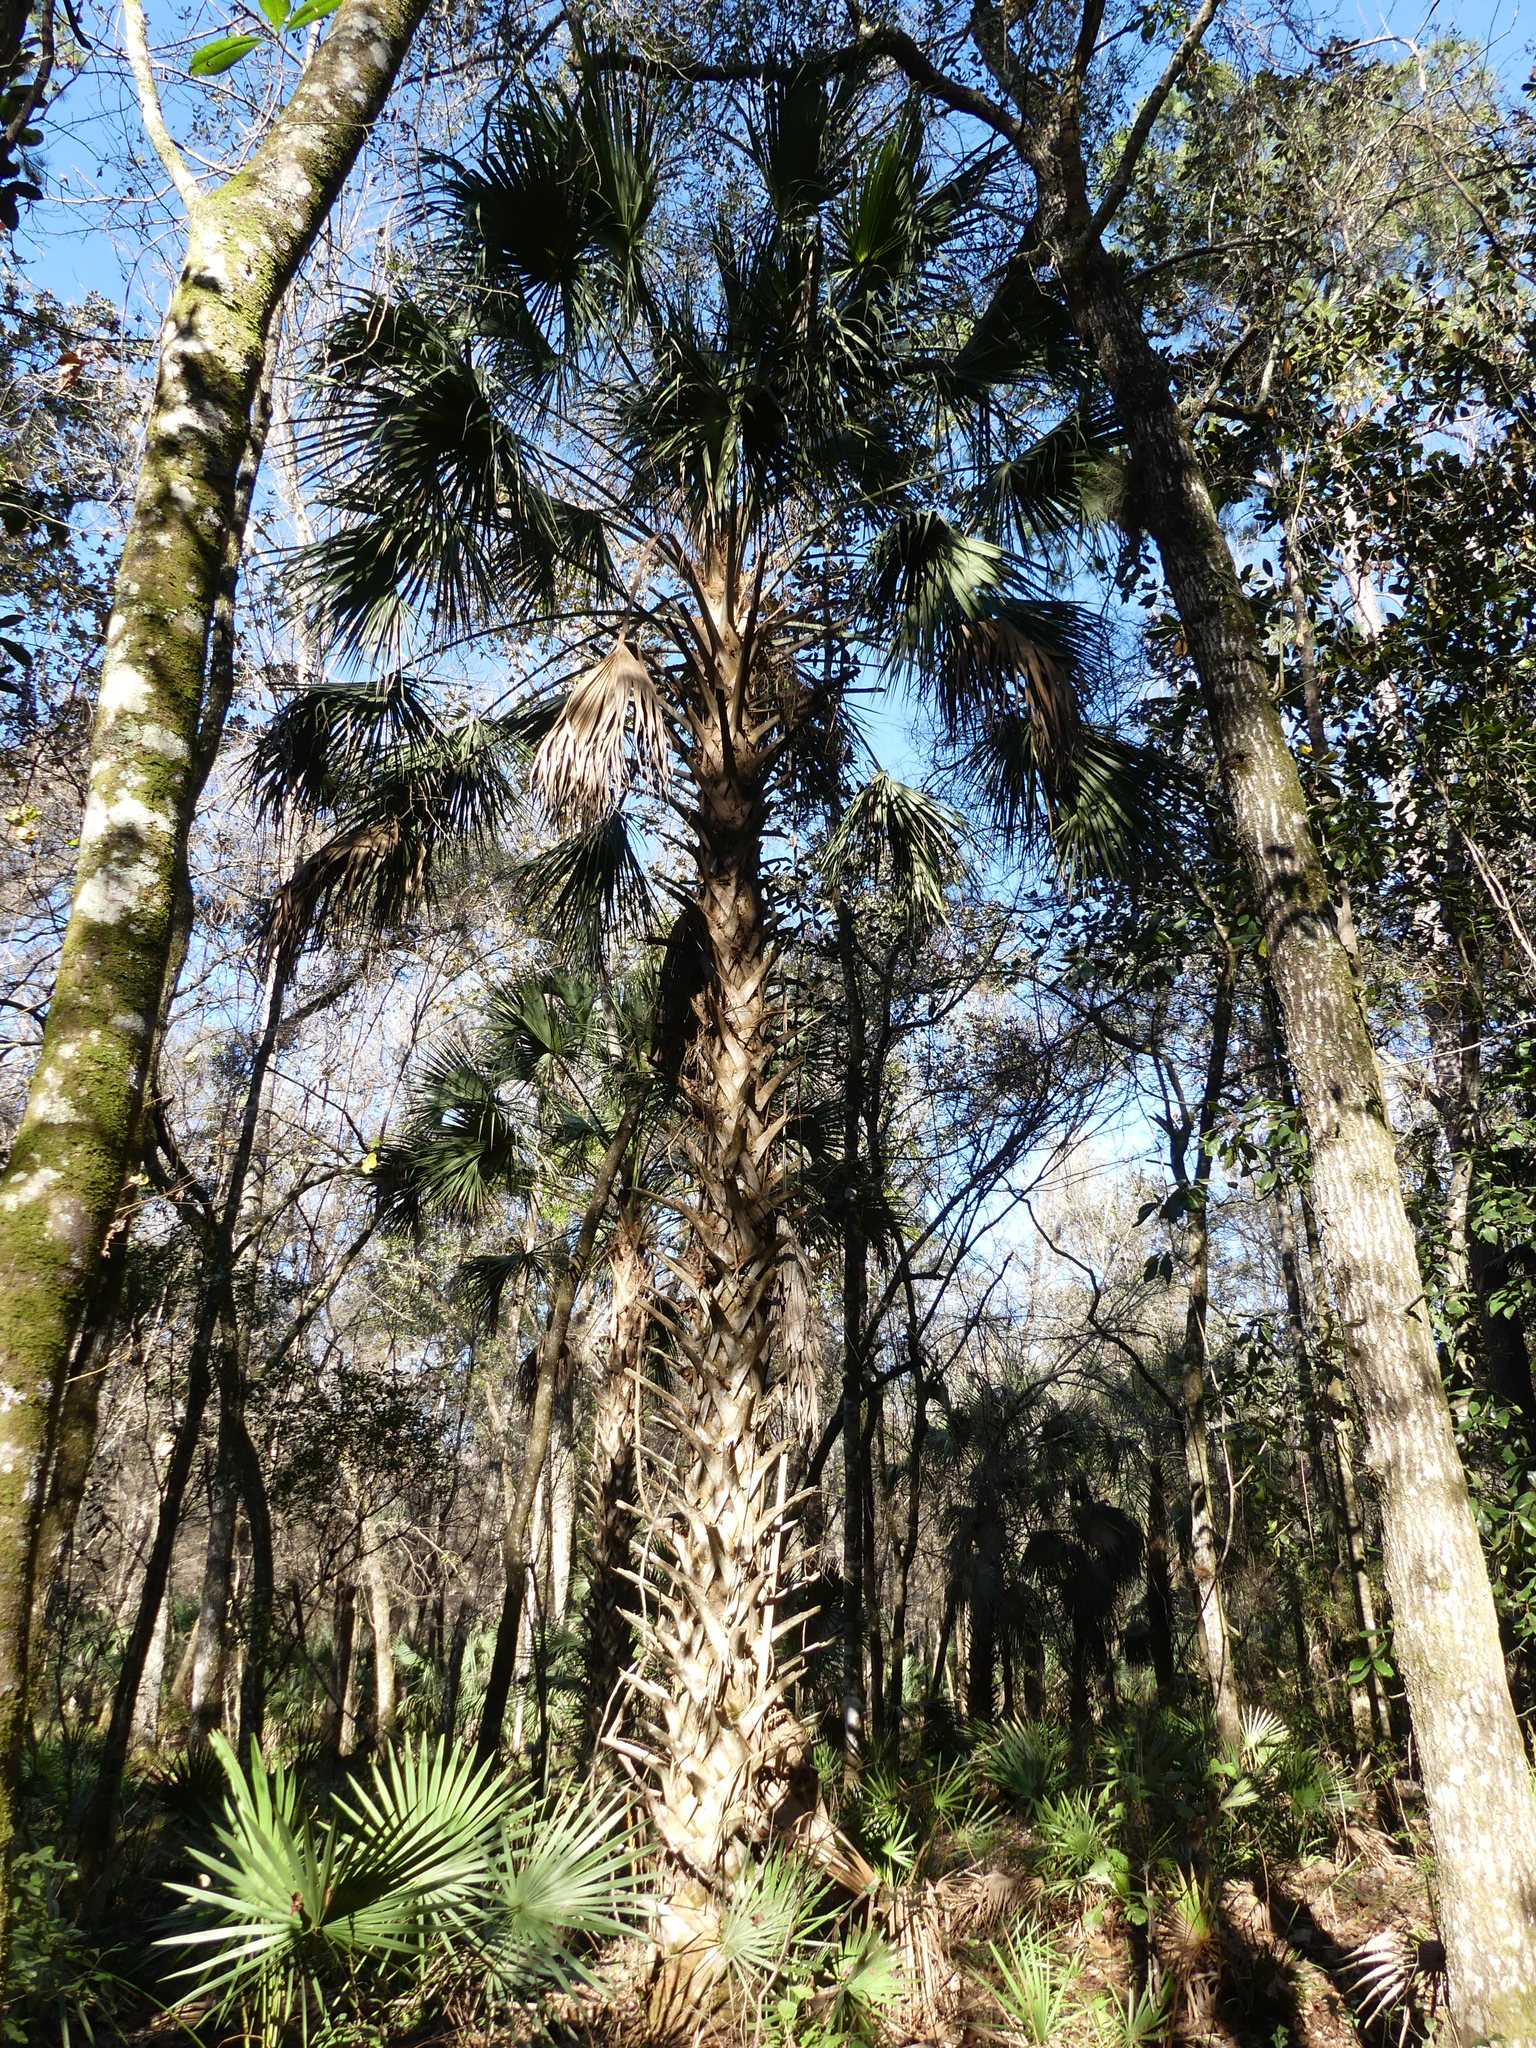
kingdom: Plantae
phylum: Tracheophyta
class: Liliopsida
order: Arecales
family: Arecaceae
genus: Sabal
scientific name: Sabal palmetto
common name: Blue palmetto
